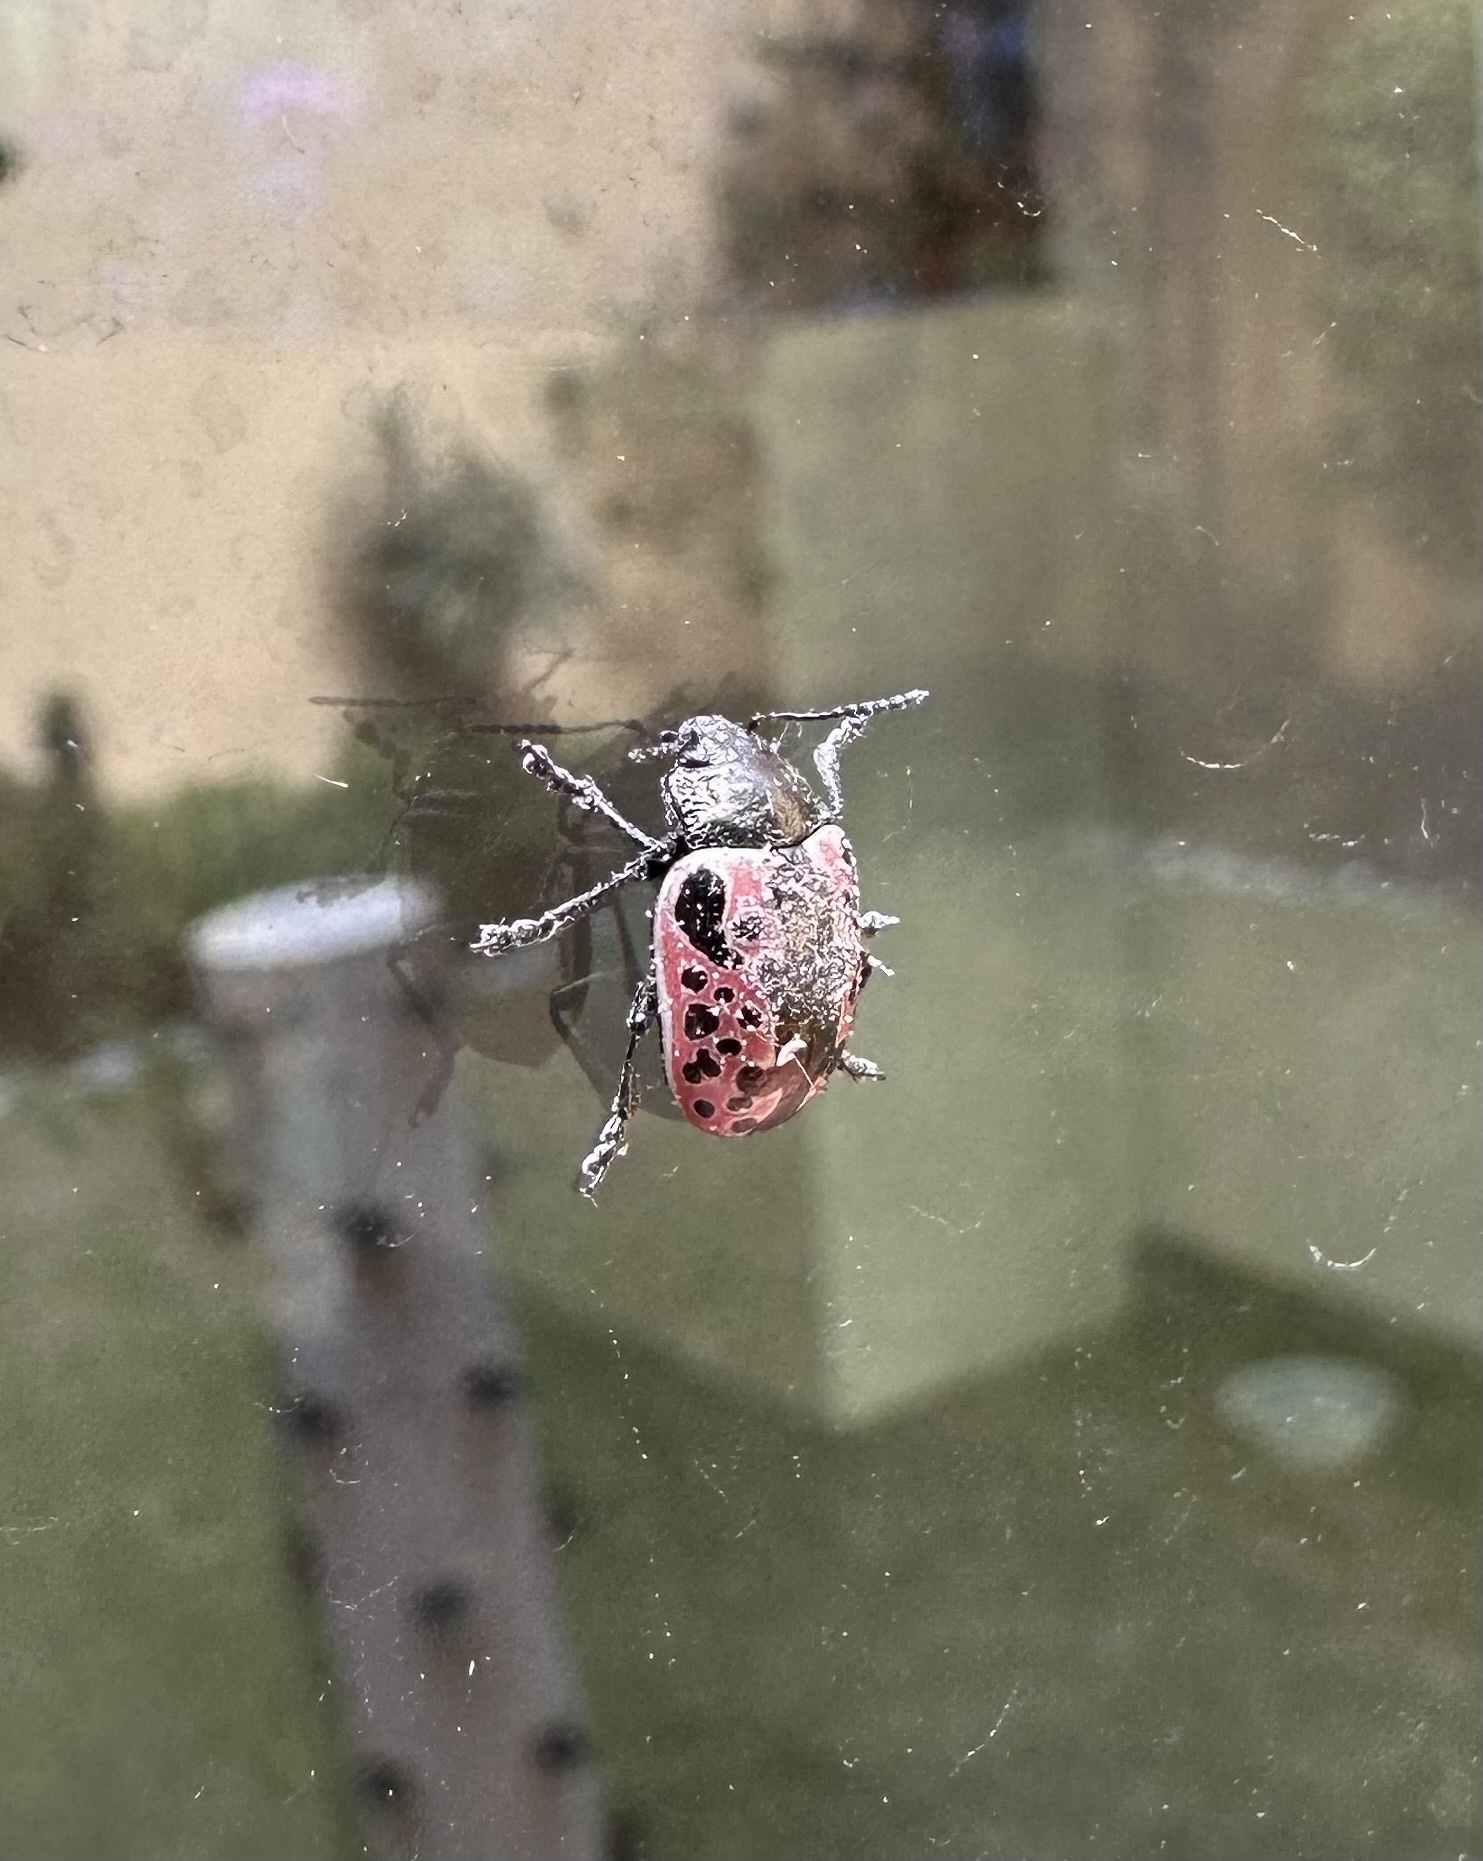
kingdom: Animalia
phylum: Arthropoda
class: Insecta
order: Coleoptera
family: Chrysomelidae
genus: Calligrapha
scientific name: Calligrapha diversa
